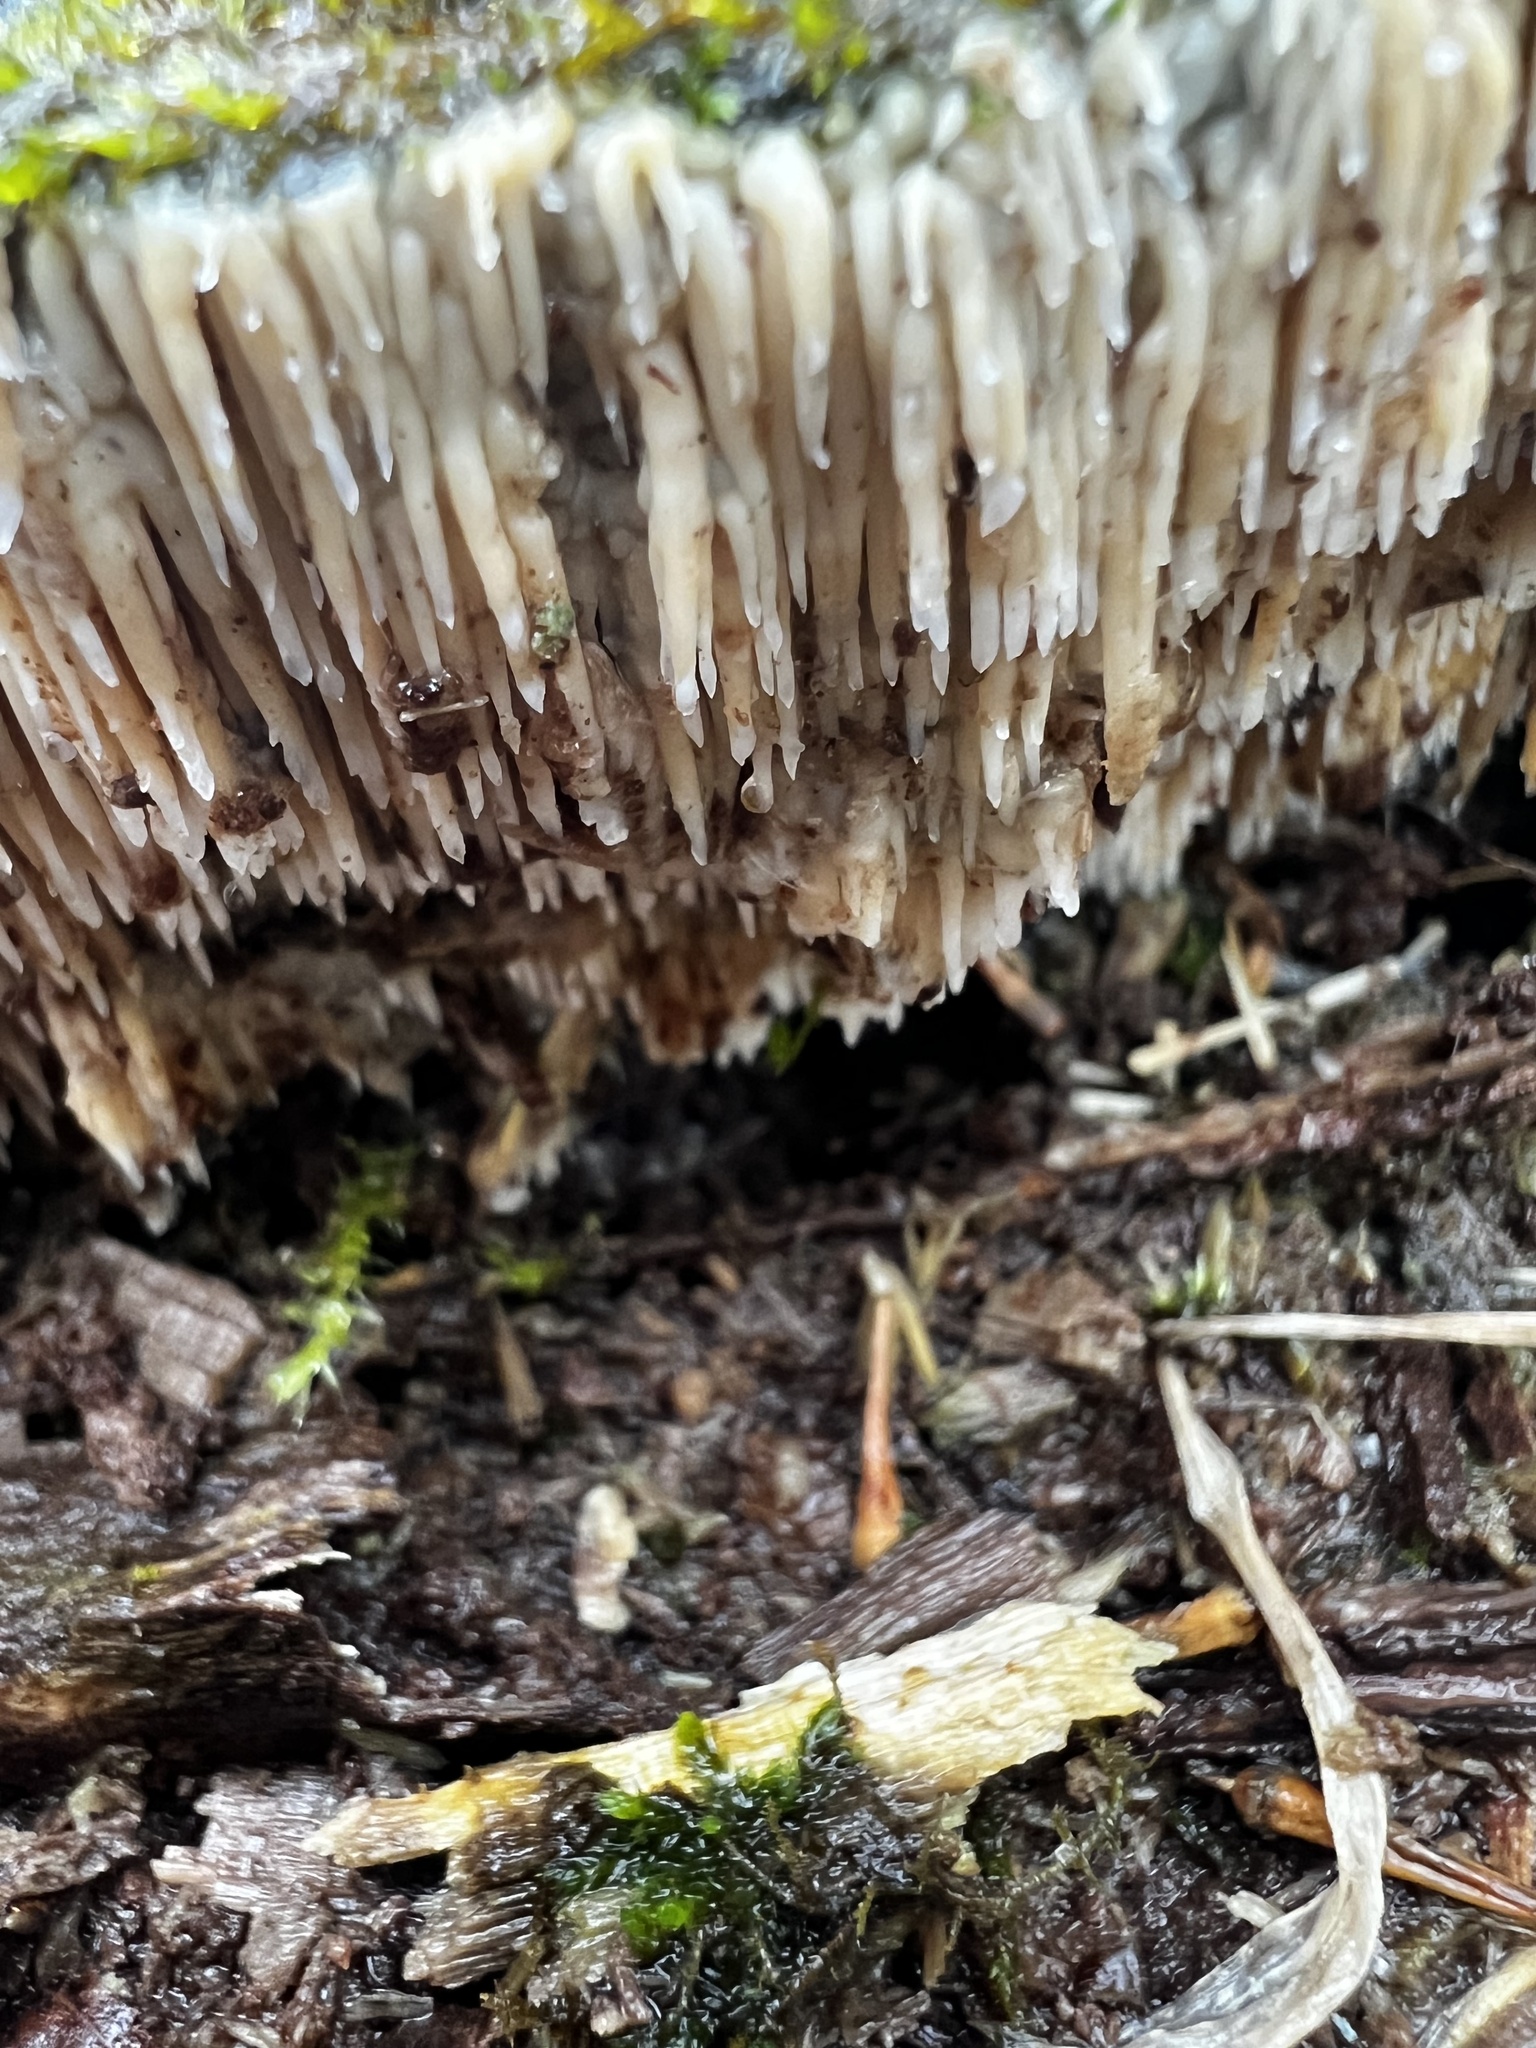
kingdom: Fungi
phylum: Basidiomycota
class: Agaricomycetes
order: Agaricales
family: Radulomycetaceae
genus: Radulomyces
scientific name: Radulomyces copelandii
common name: Asian beauty
